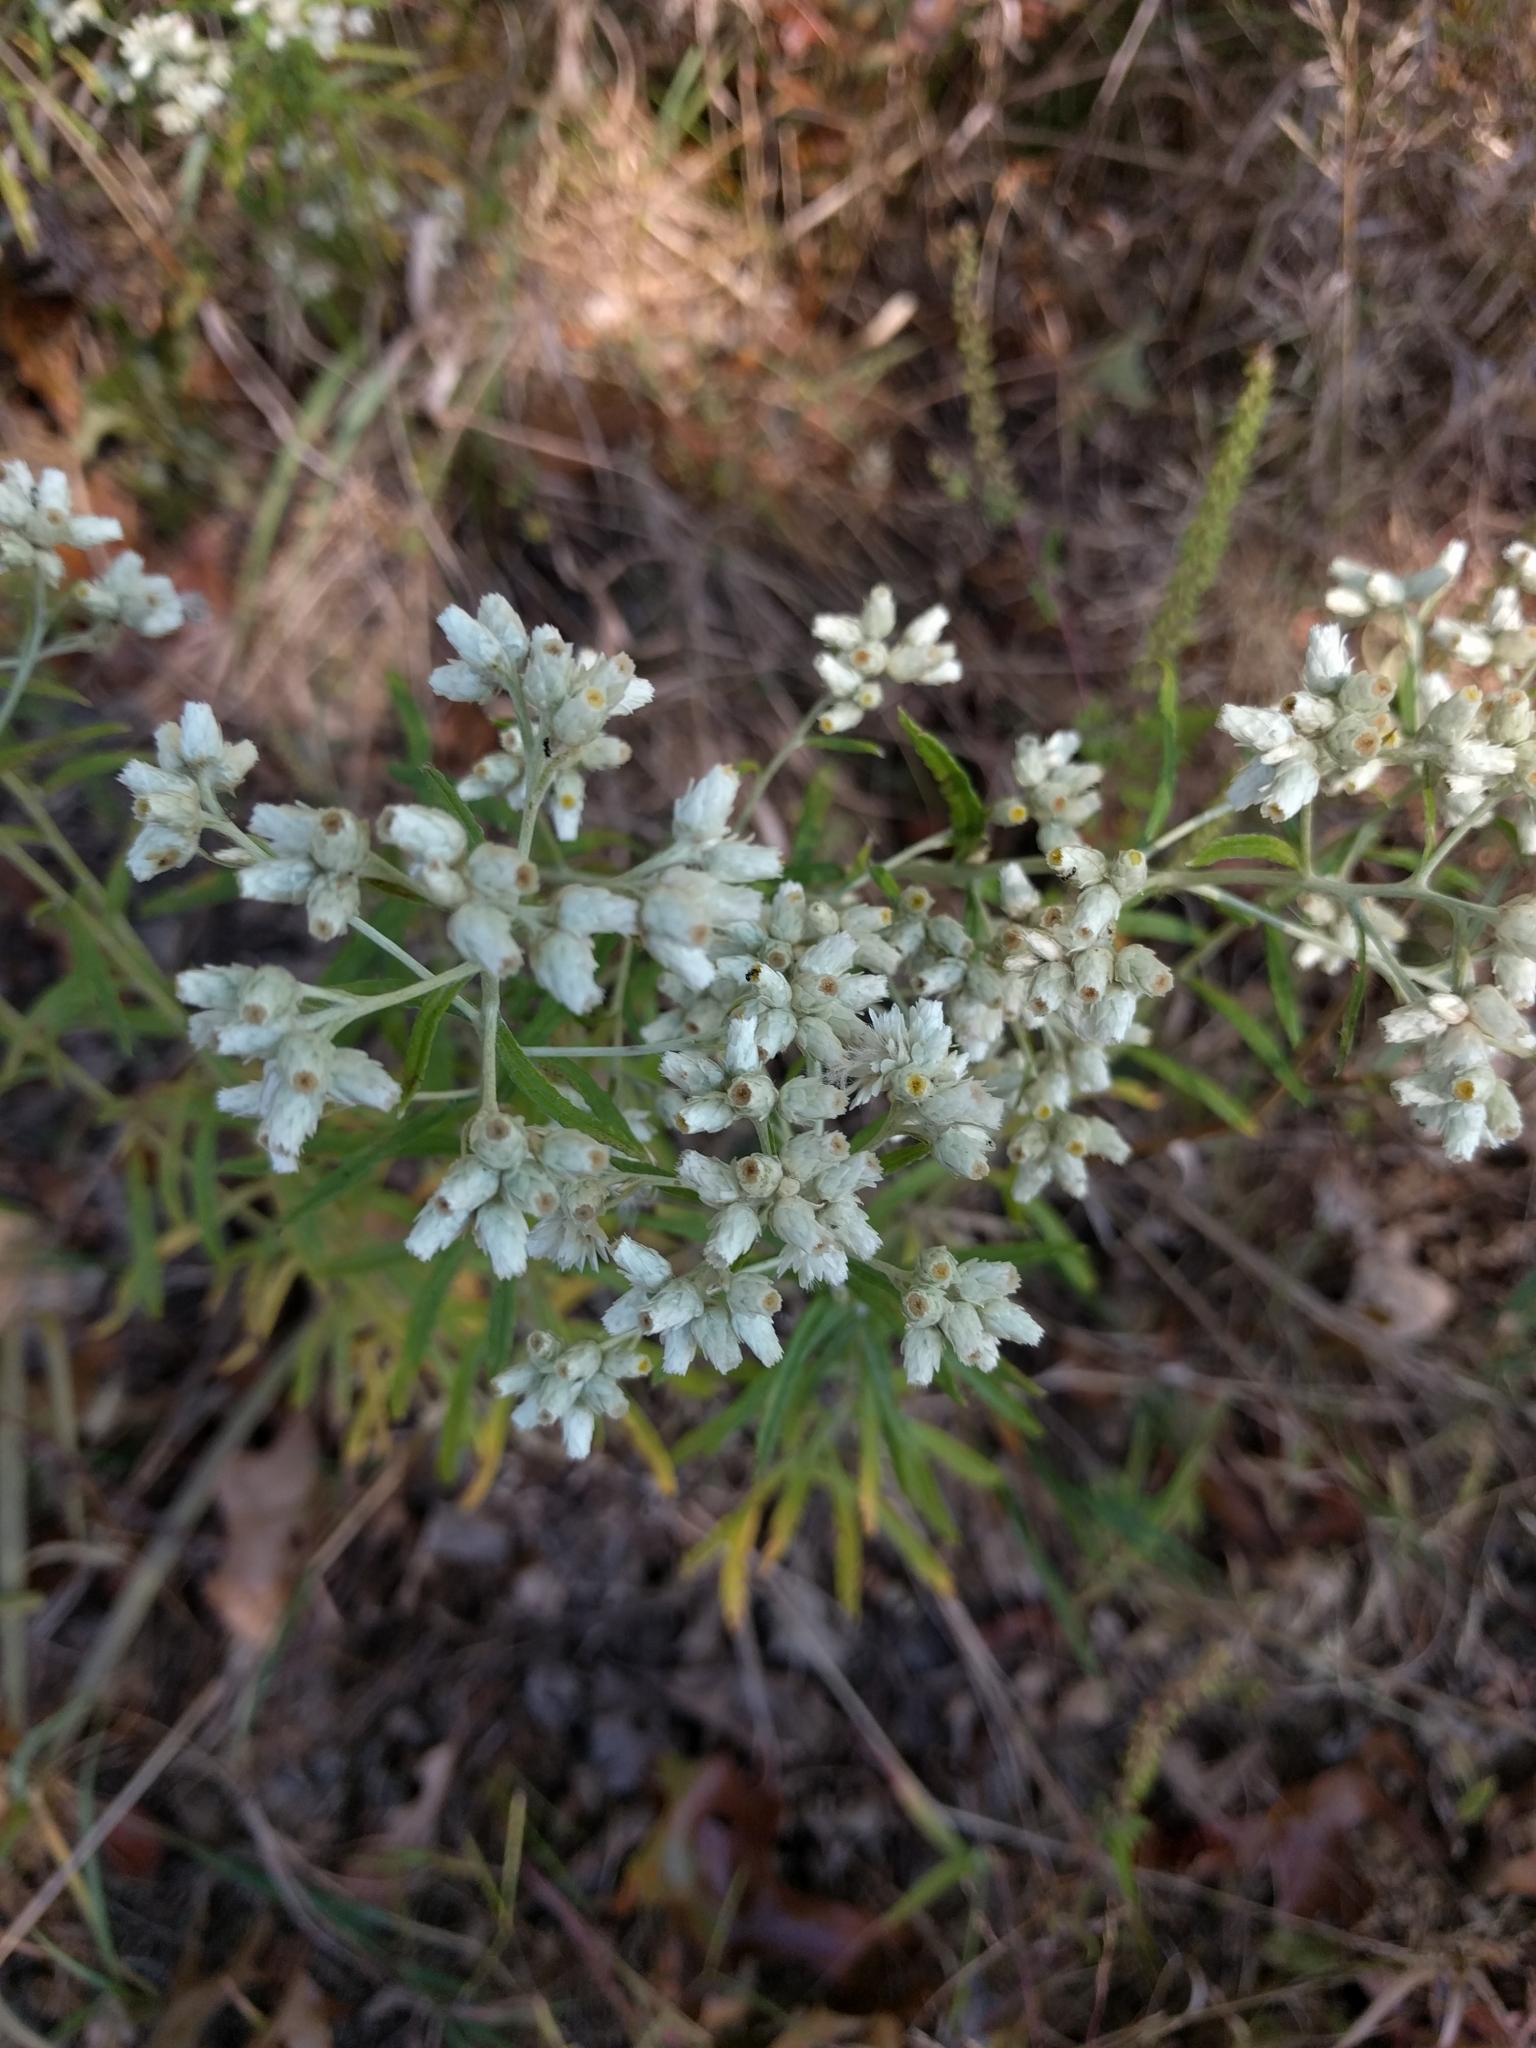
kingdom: Plantae
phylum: Tracheophyta
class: Magnoliopsida
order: Asterales
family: Asteraceae
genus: Pseudognaphalium
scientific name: Pseudognaphalium obtusifolium
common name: Eastern rabbit-tobacco
